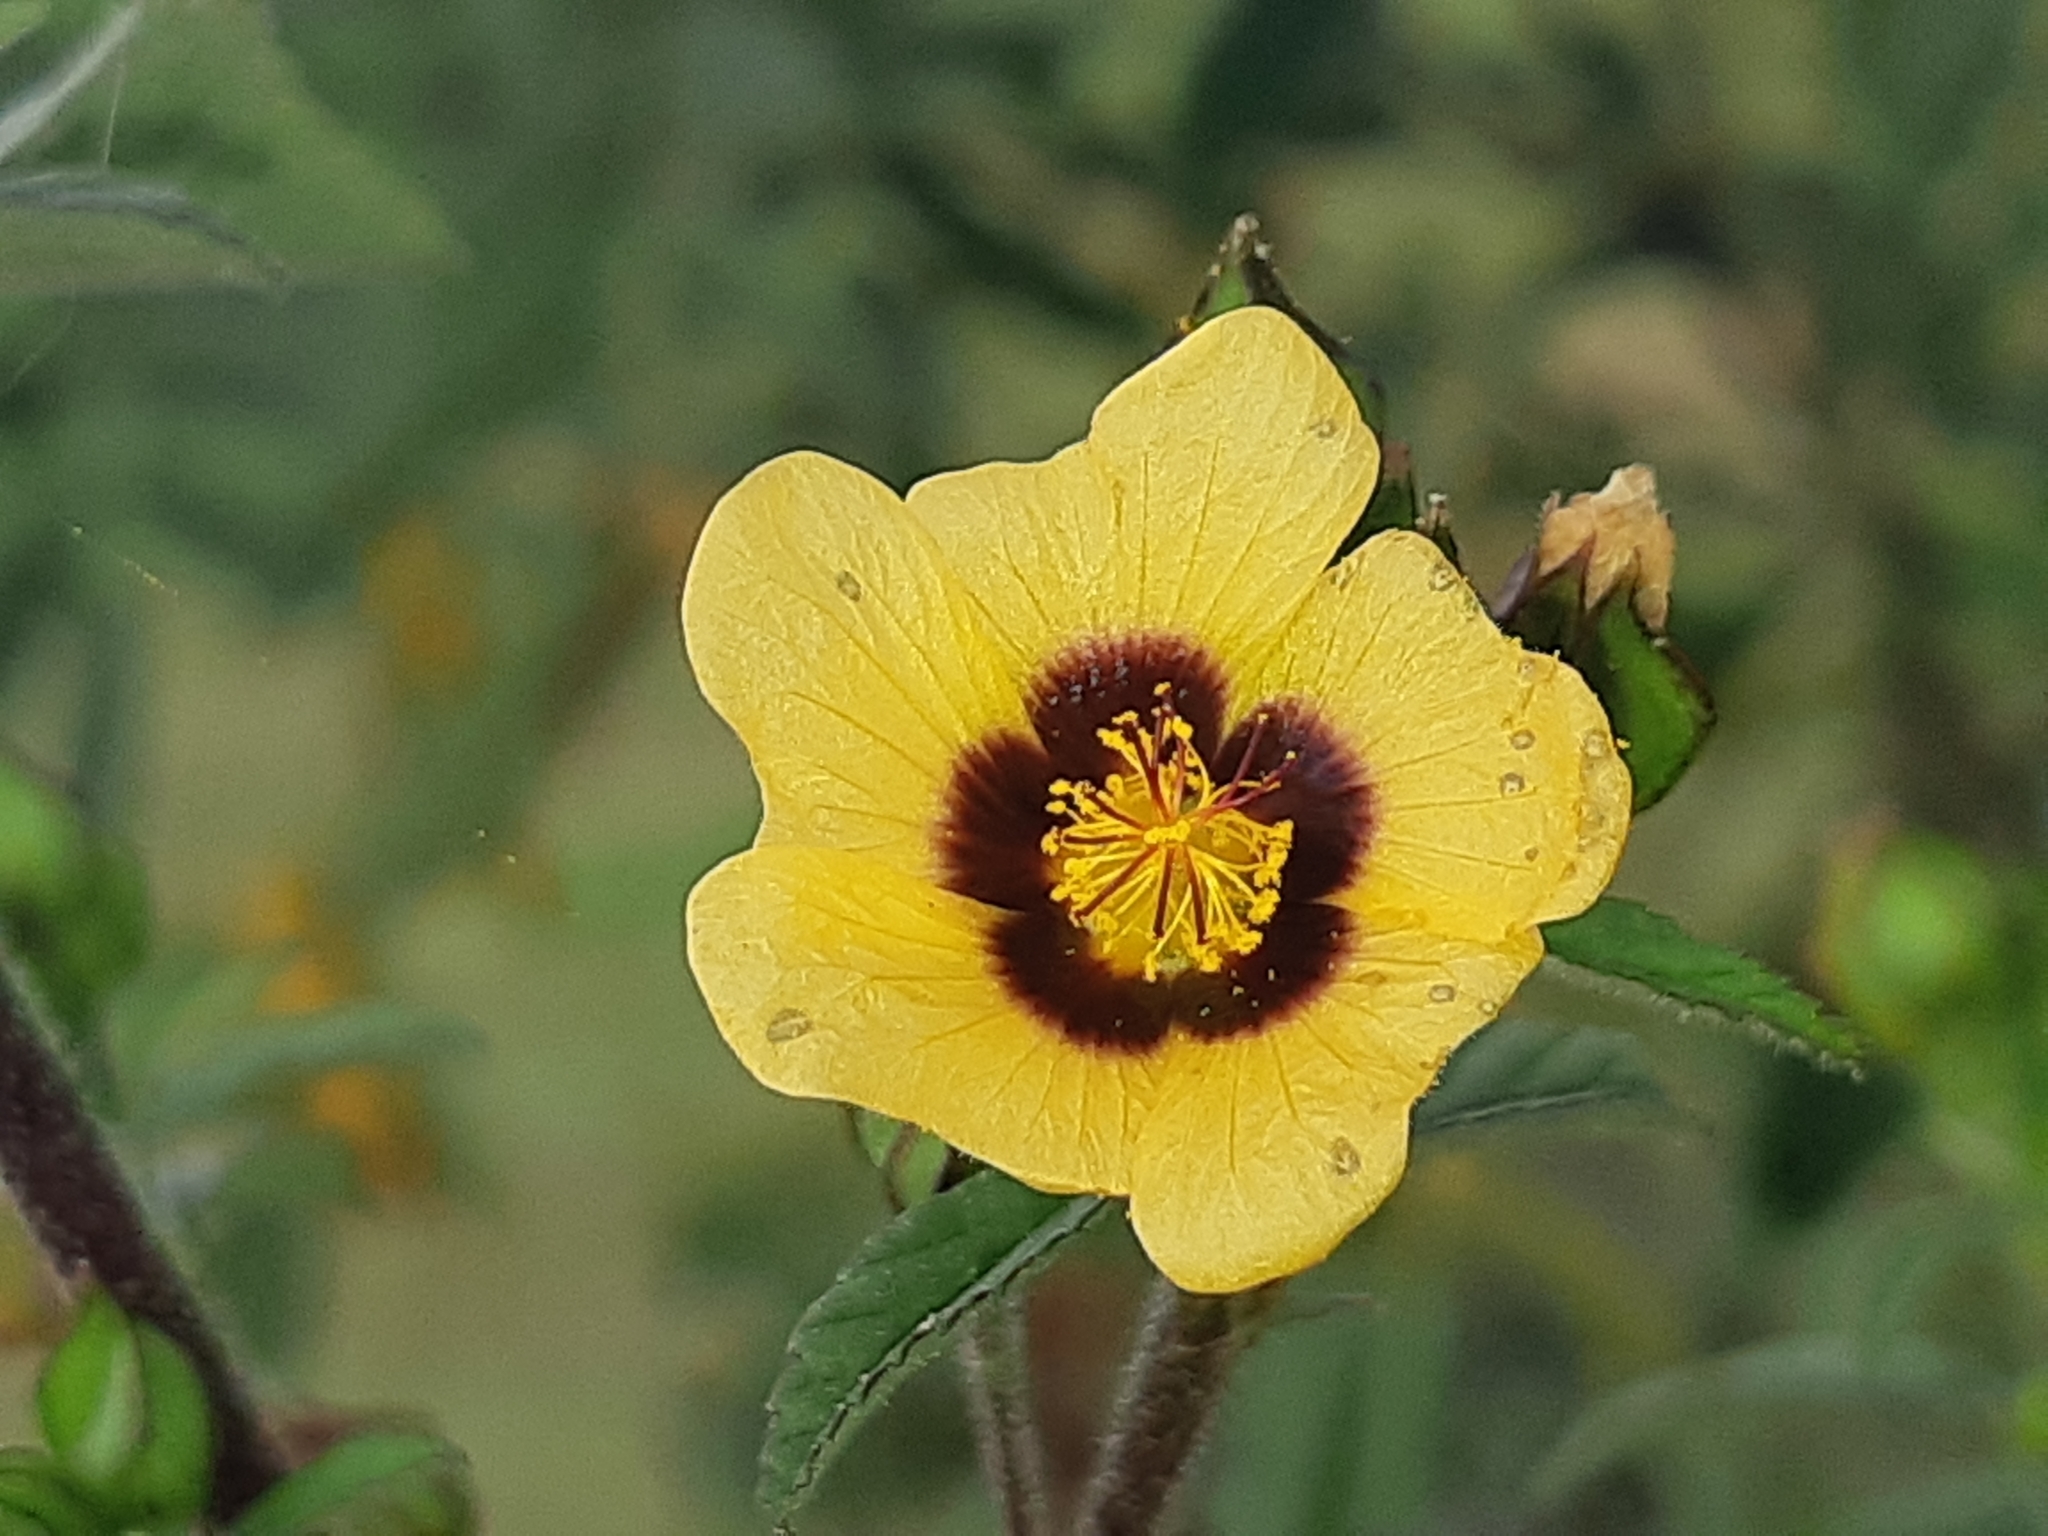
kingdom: Plantae
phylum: Tracheophyta
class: Magnoliopsida
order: Malvales
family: Malvaceae
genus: Sida
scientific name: Sida poeppigiana
